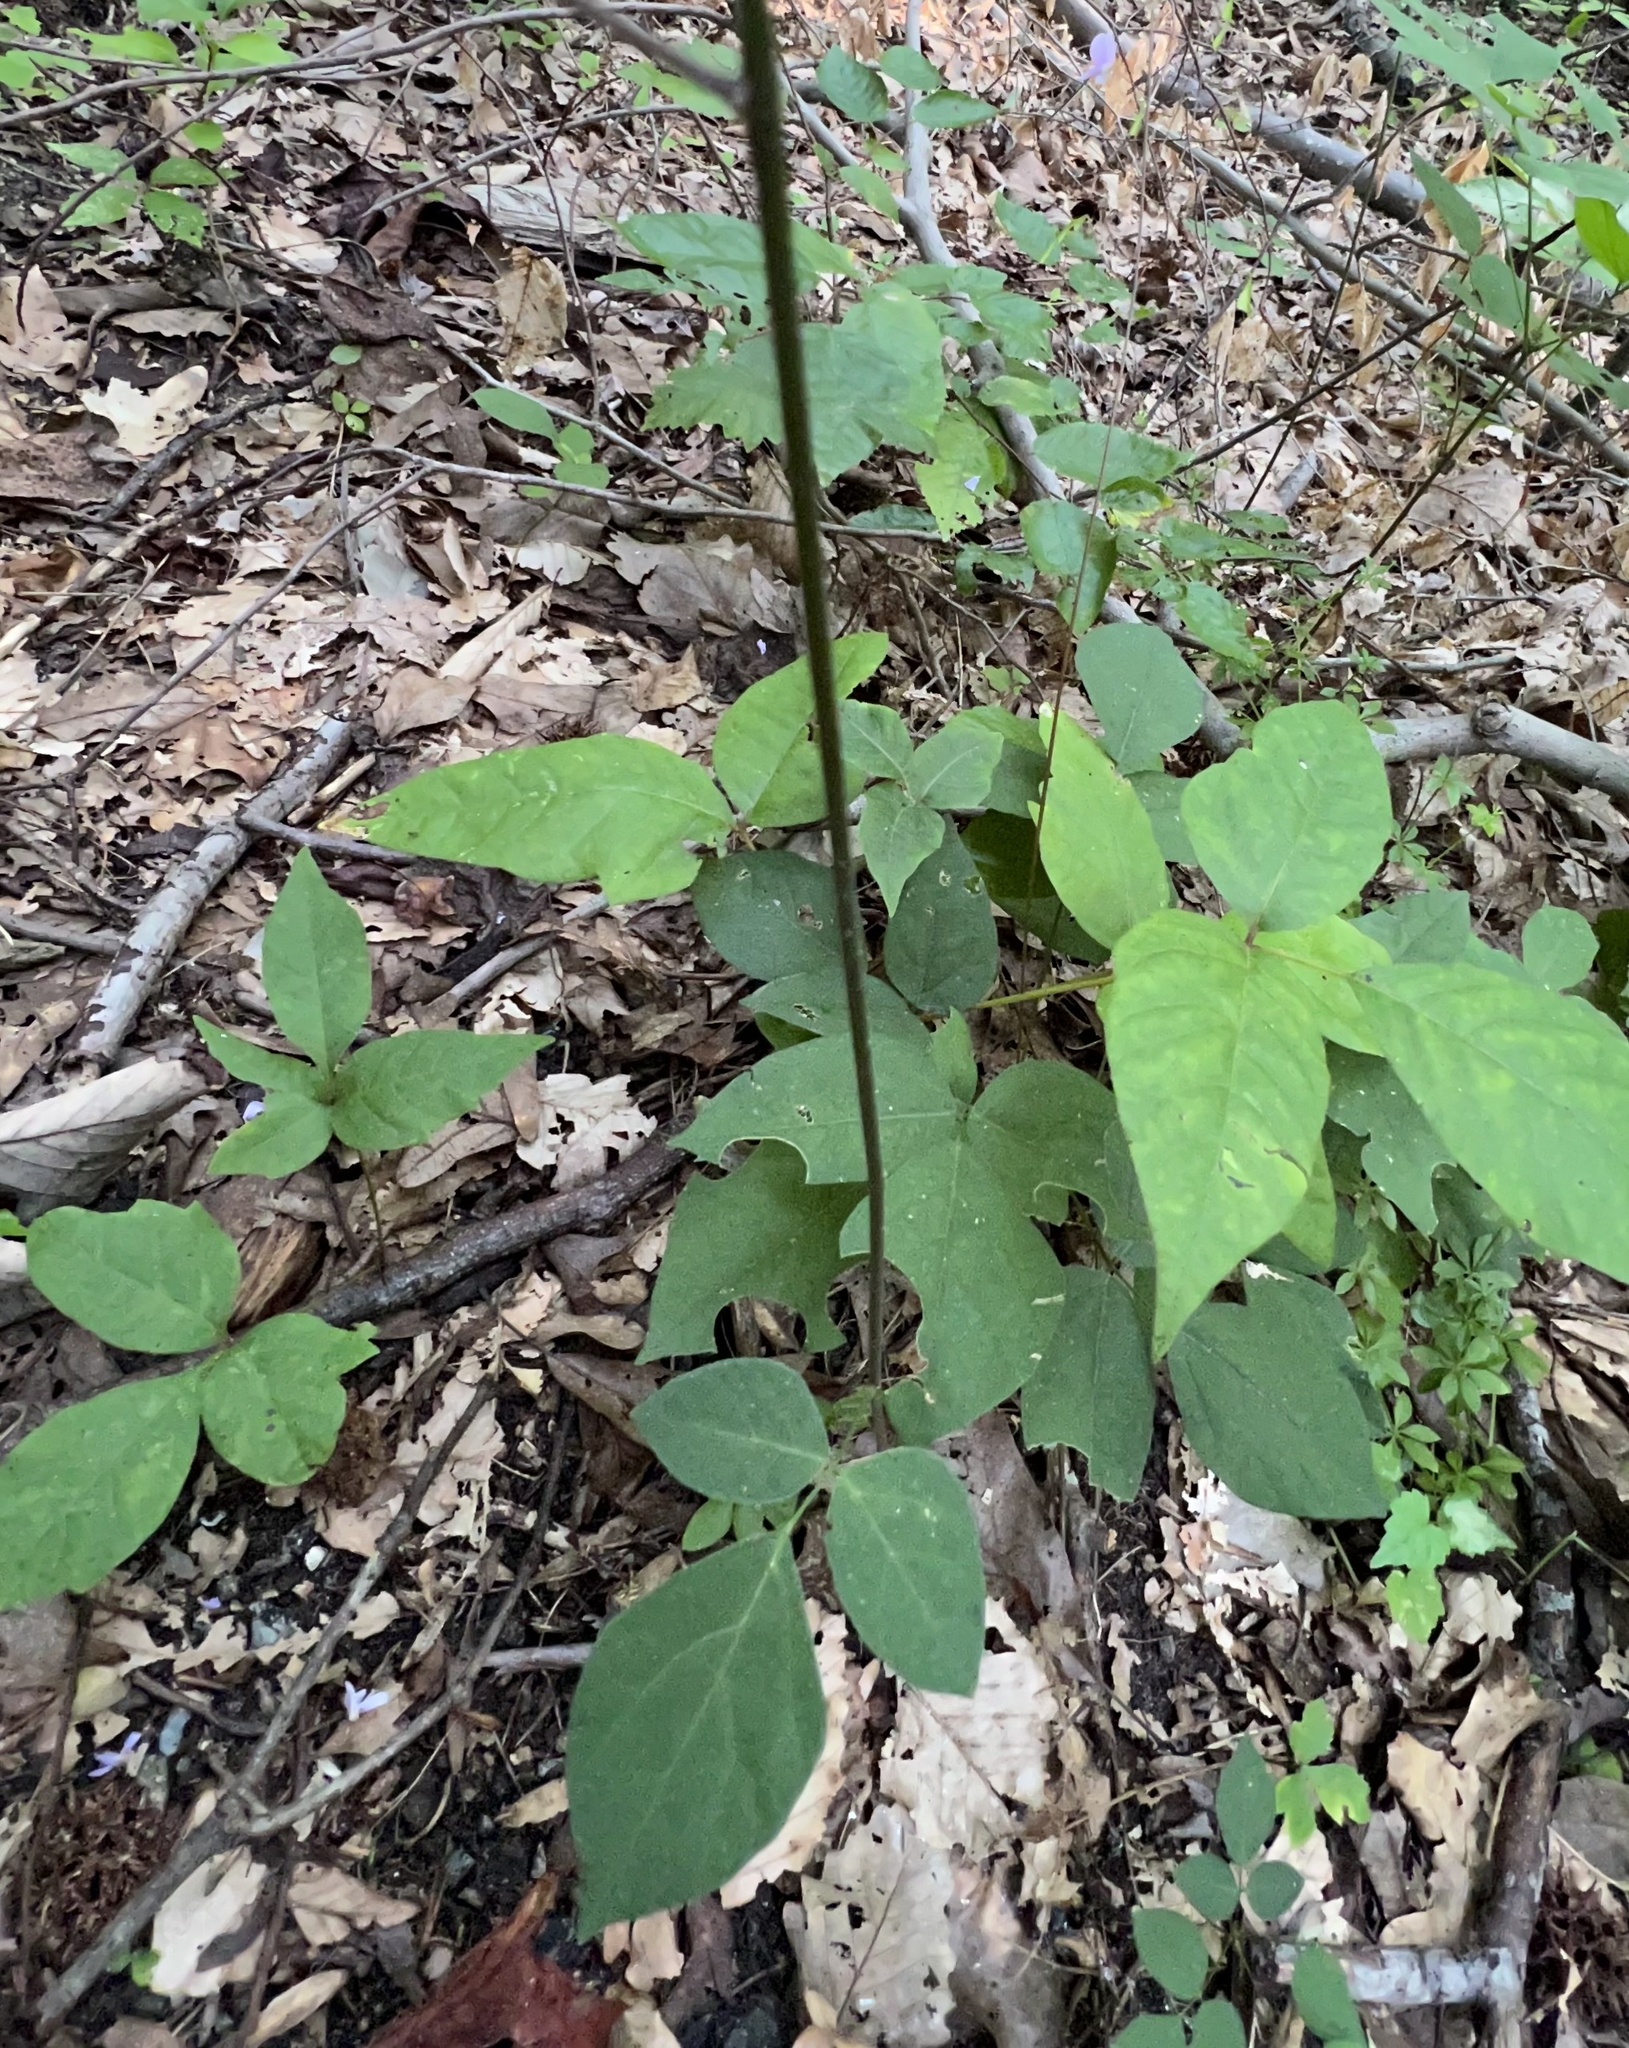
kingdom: Plantae
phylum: Tracheophyta
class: Magnoliopsida
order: Fabales
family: Fabaceae
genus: Hylodesmum
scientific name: Hylodesmum nudiflorum
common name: Bare-stemmed tick-trefoil
